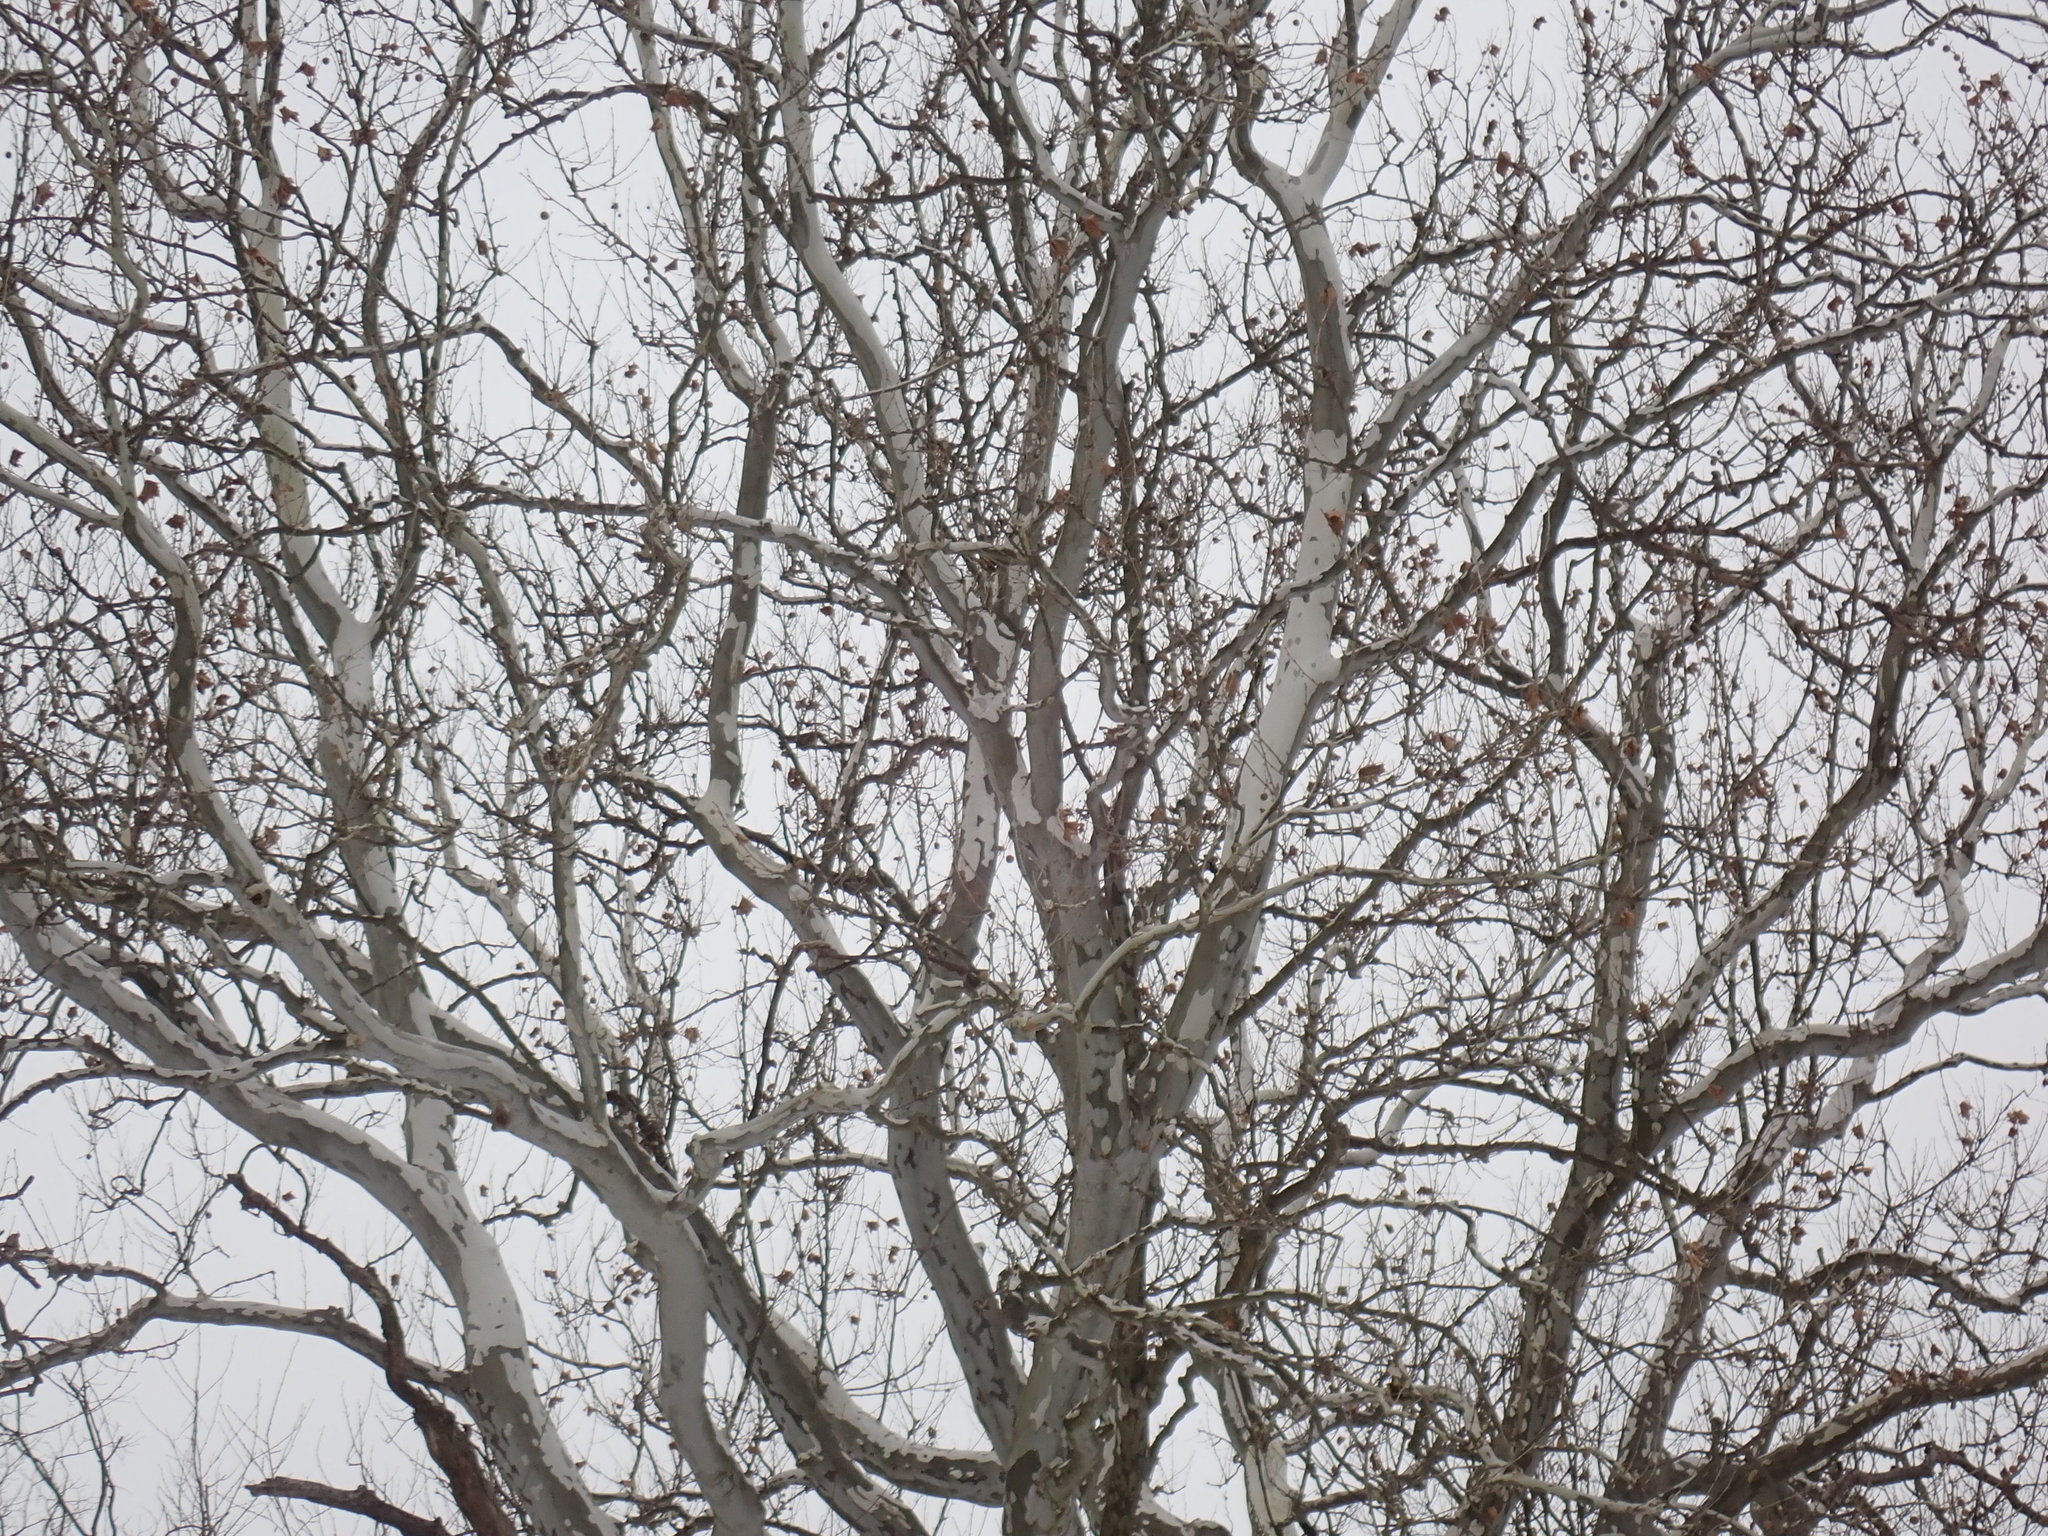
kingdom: Plantae
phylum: Tracheophyta
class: Magnoliopsida
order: Proteales
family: Platanaceae
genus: Platanus
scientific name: Platanus occidentalis
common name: American sycamore
